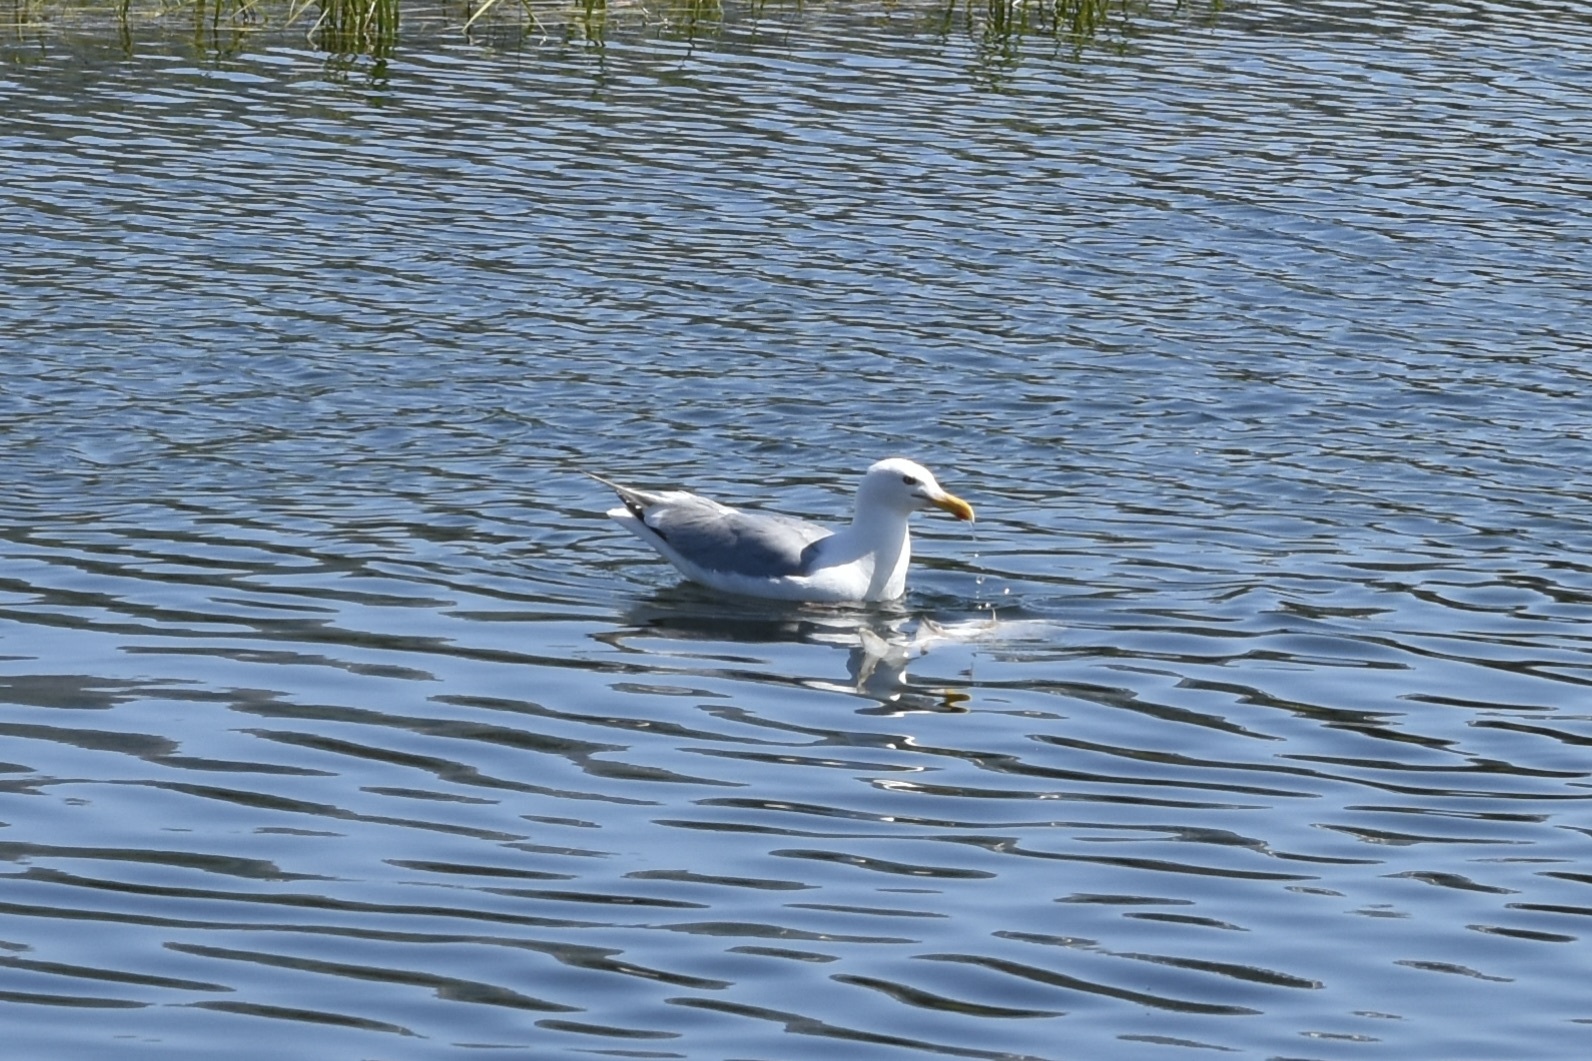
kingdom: Animalia
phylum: Chordata
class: Aves
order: Charadriiformes
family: Laridae
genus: Larus
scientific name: Larus
